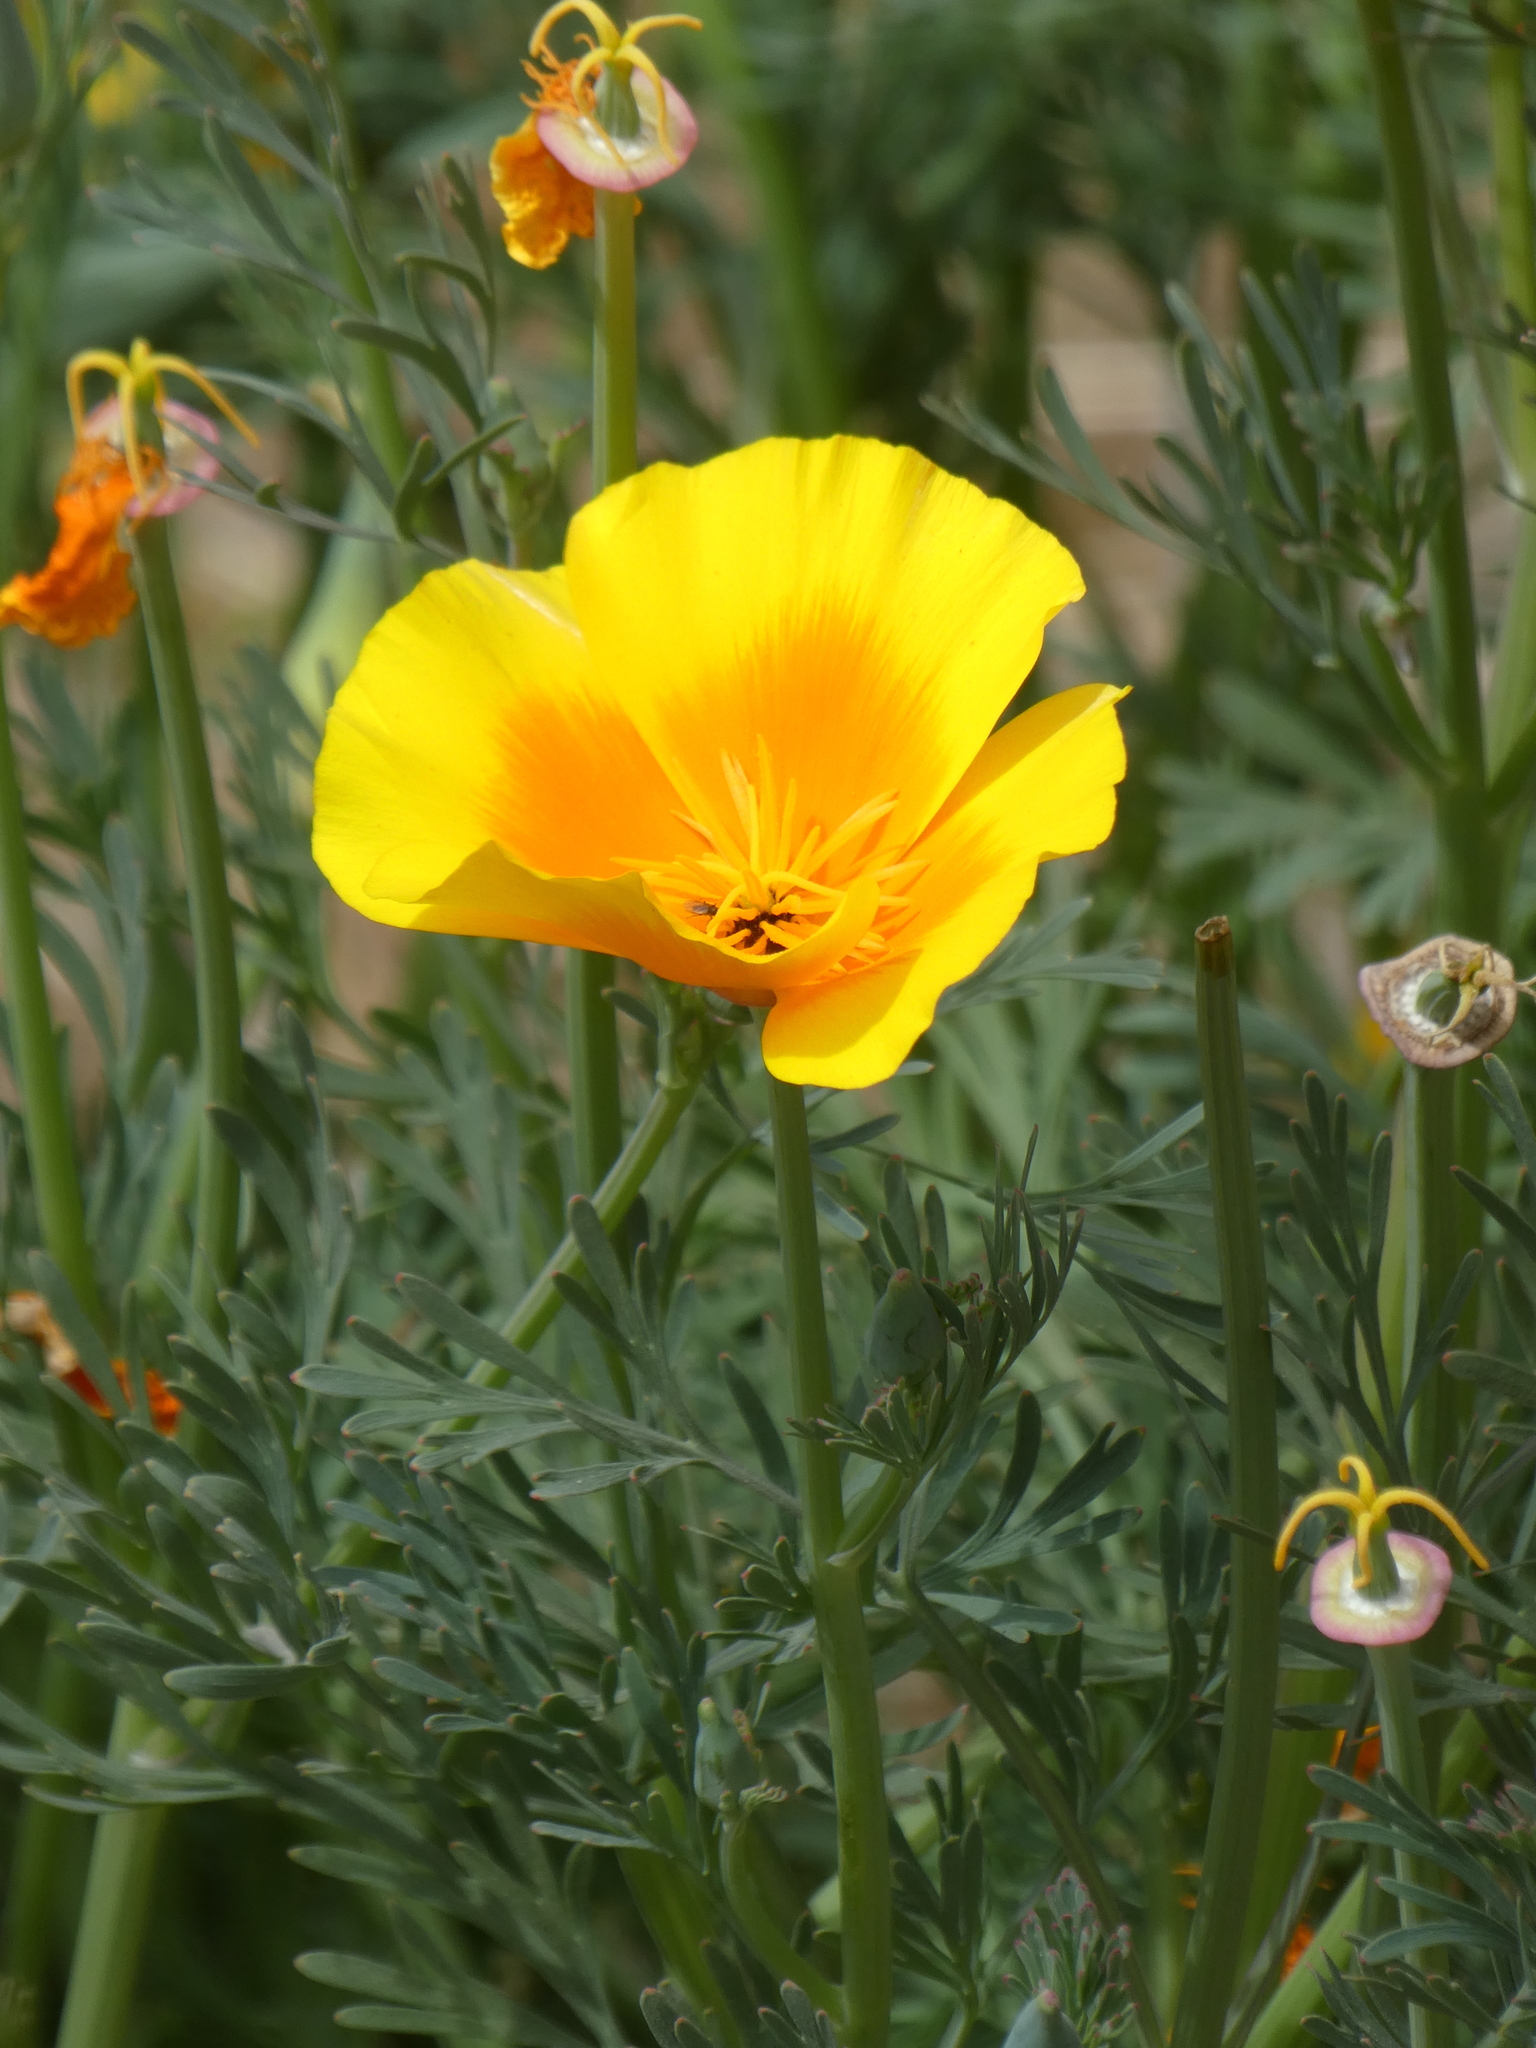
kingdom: Plantae
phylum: Tracheophyta
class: Magnoliopsida
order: Ranunculales
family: Papaveraceae
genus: Eschscholzia
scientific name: Eschscholzia californica
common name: California poppy
